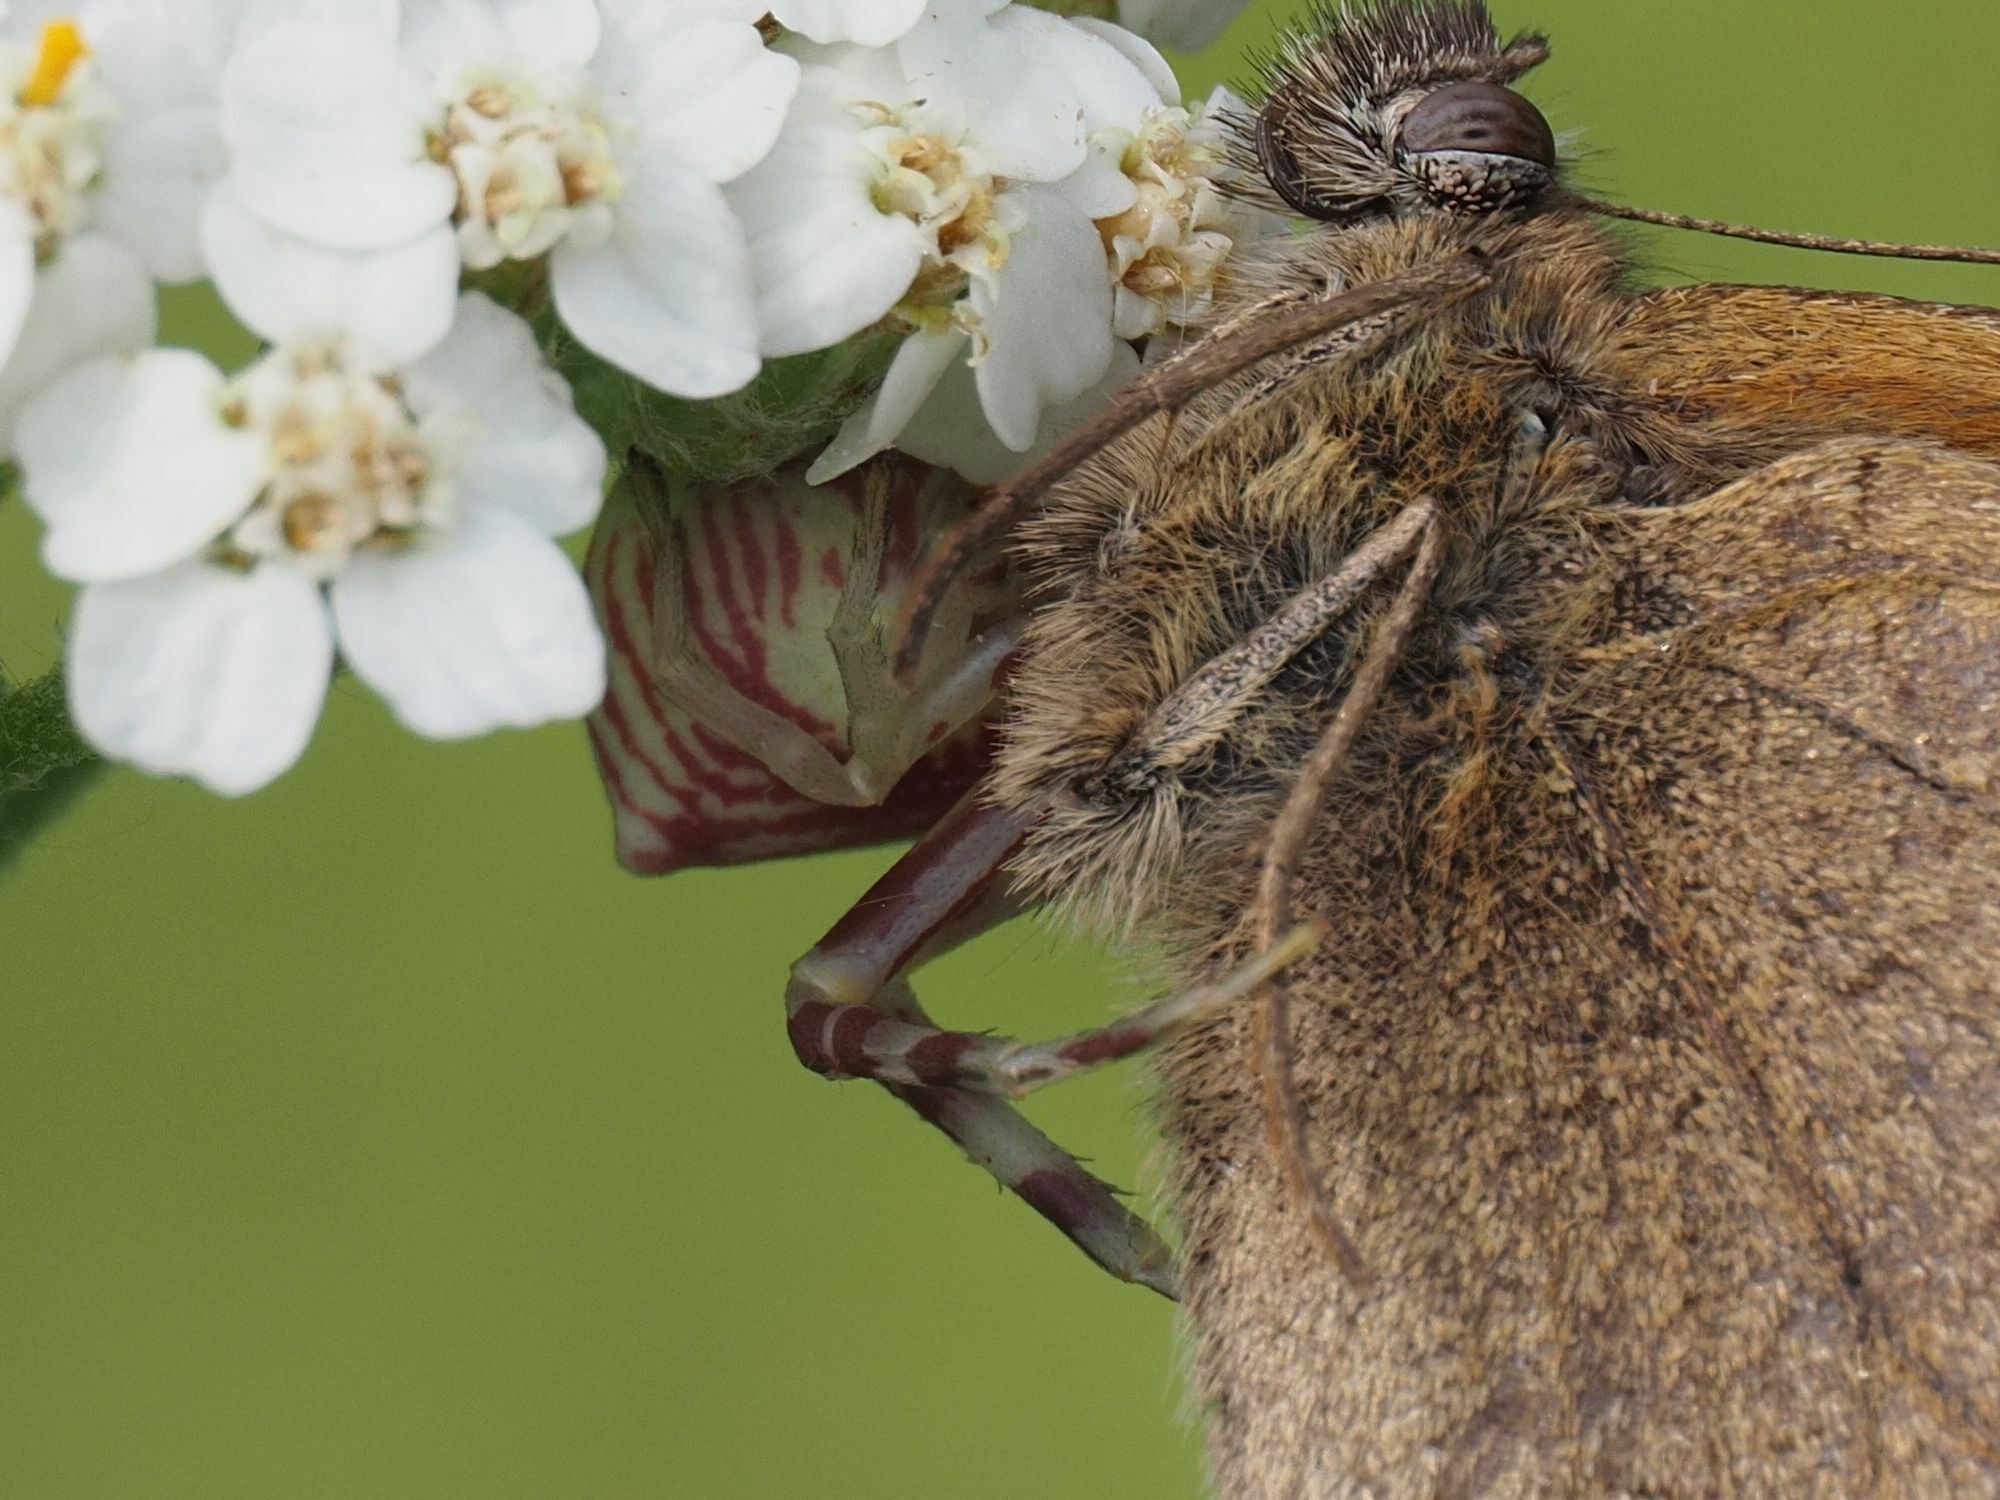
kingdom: Animalia
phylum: Arthropoda
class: Arachnida
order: Araneae
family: Thomisidae
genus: Thomisus
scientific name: Thomisus onustus
